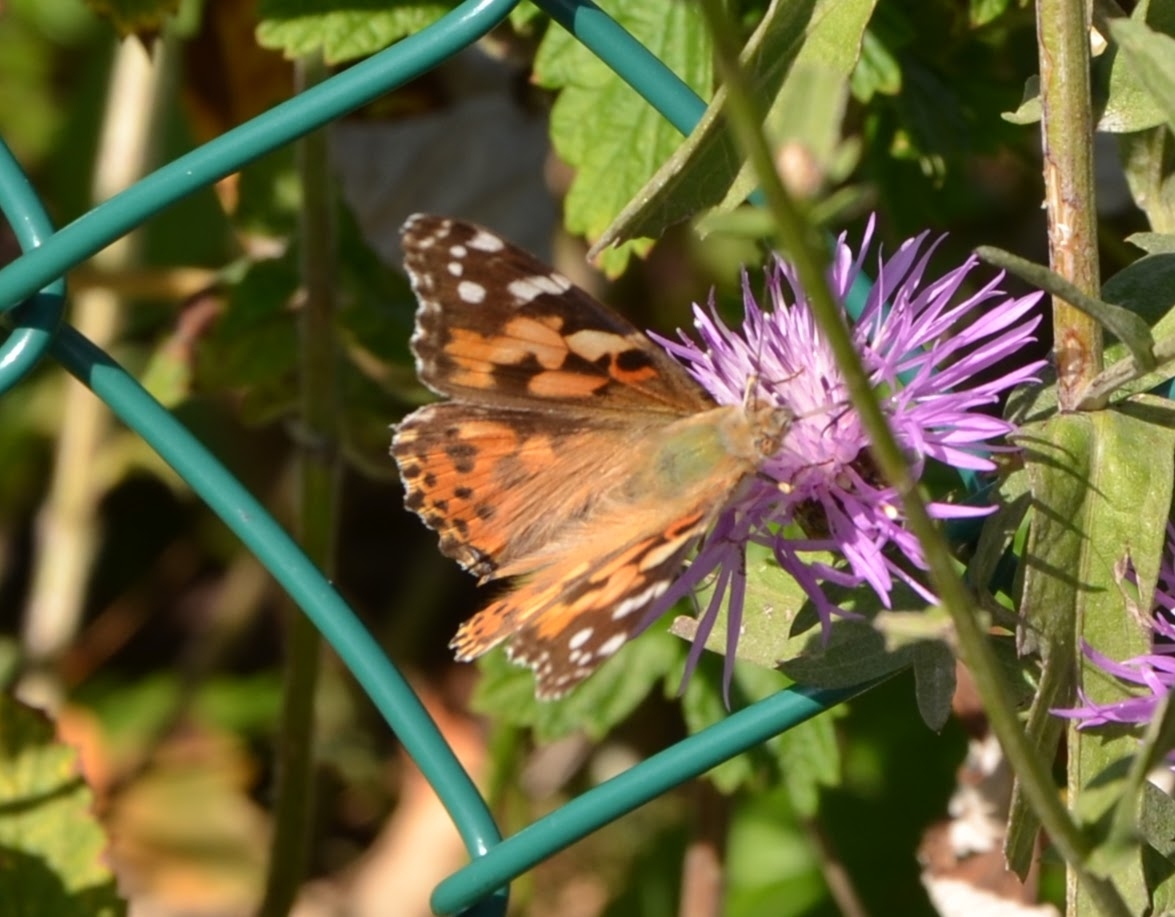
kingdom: Animalia
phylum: Arthropoda
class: Insecta
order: Lepidoptera
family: Nymphalidae
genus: Vanessa
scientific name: Vanessa cardui
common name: Painted lady
